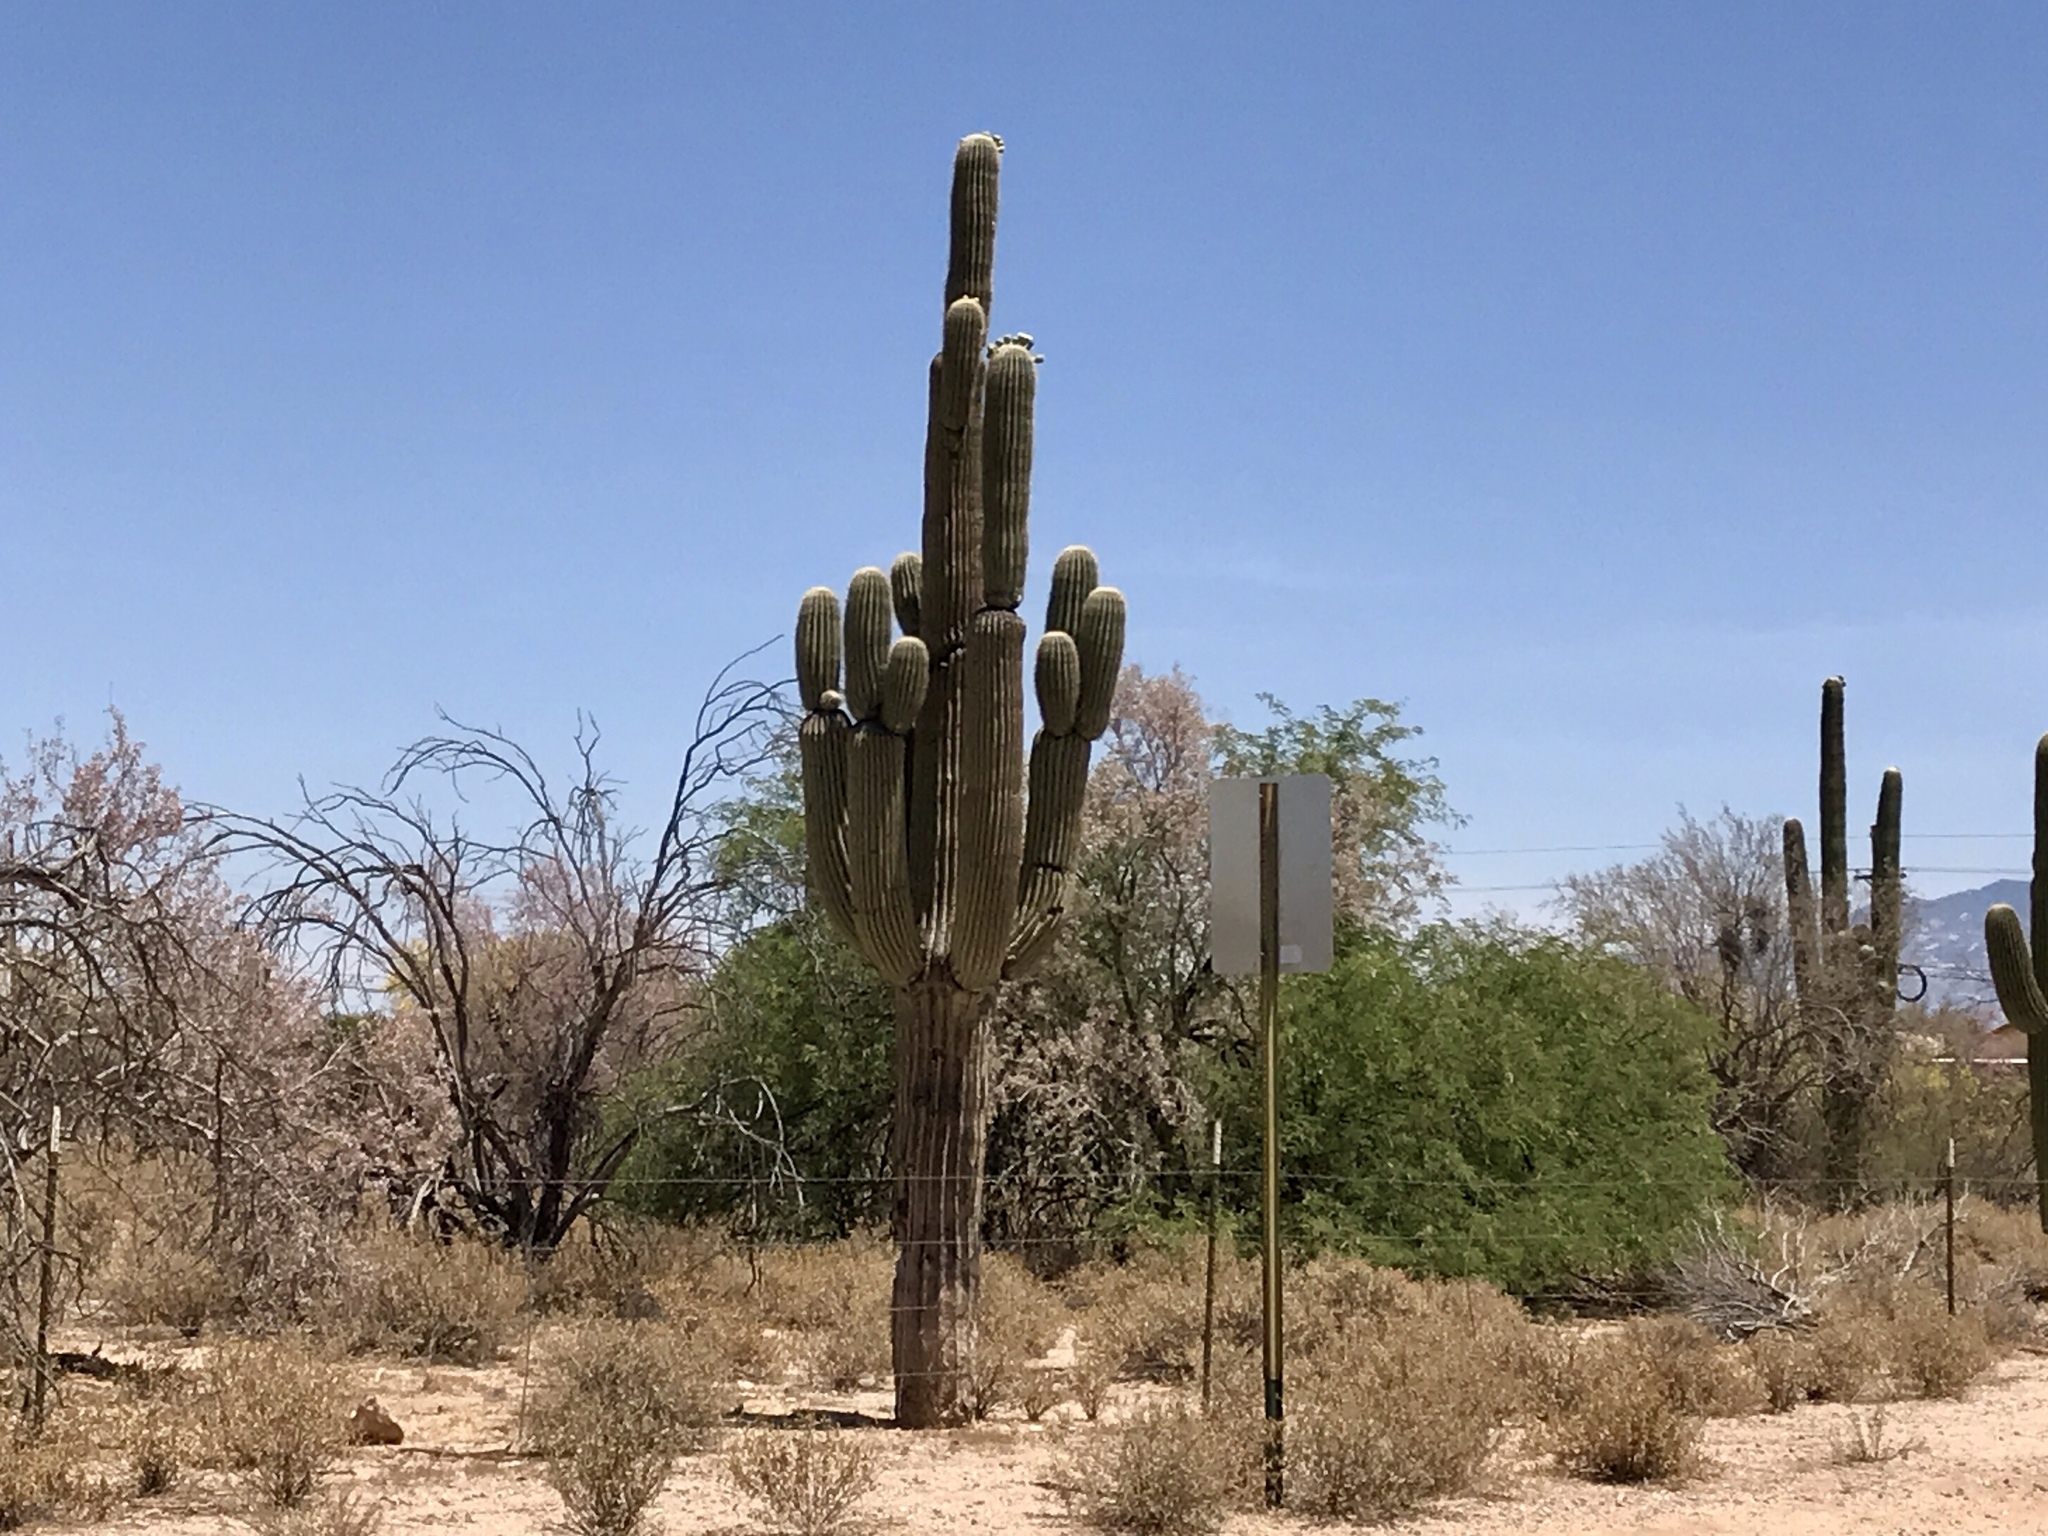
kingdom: Plantae
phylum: Tracheophyta
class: Magnoliopsida
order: Caryophyllales
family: Cactaceae
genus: Carnegiea
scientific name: Carnegiea gigantea
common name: Saguaro
